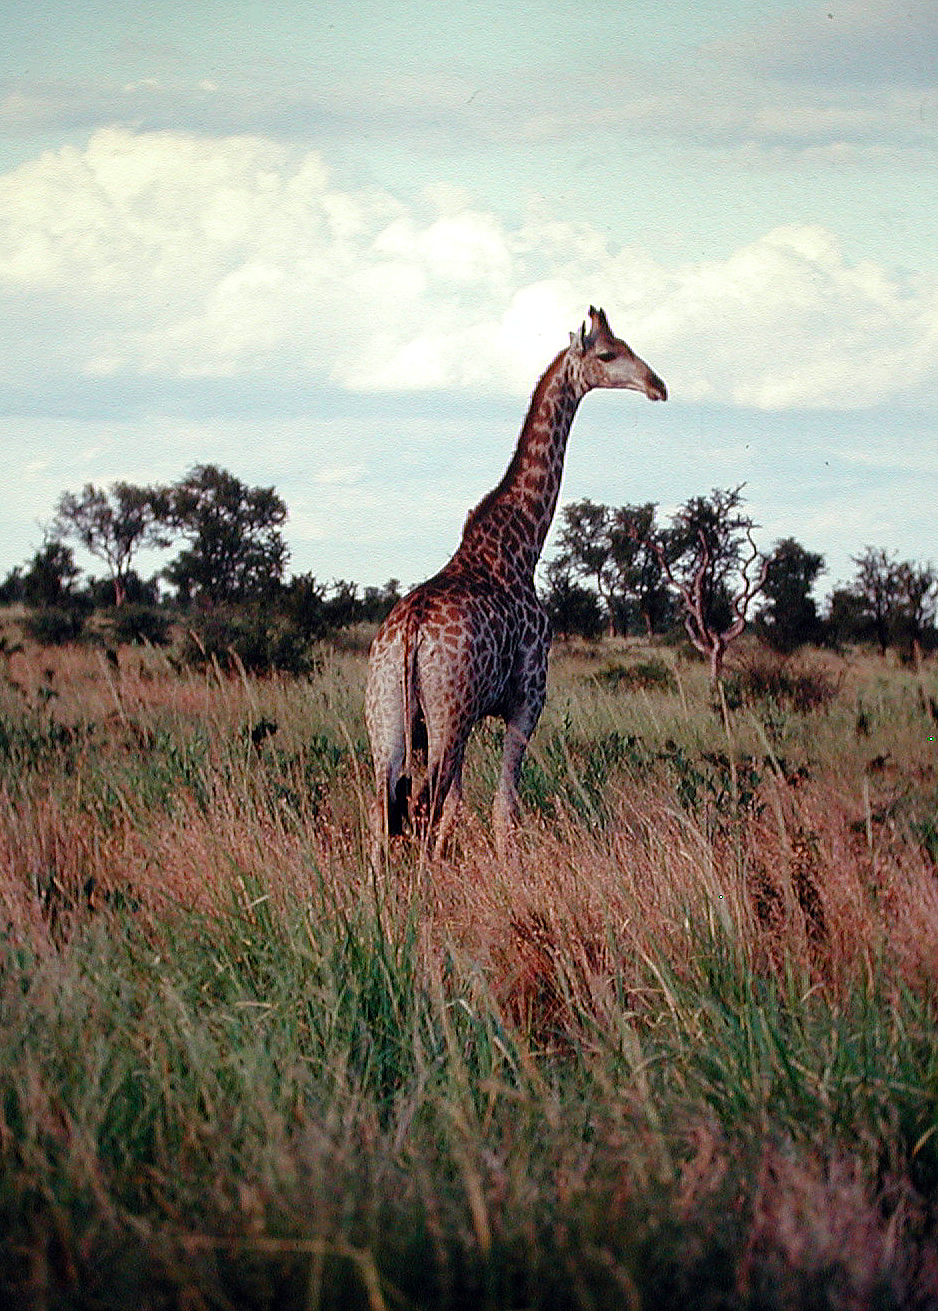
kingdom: Animalia
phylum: Chordata
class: Mammalia
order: Artiodactyla
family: Giraffidae
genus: Giraffa
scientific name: Giraffa giraffa
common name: Southern giraffe
